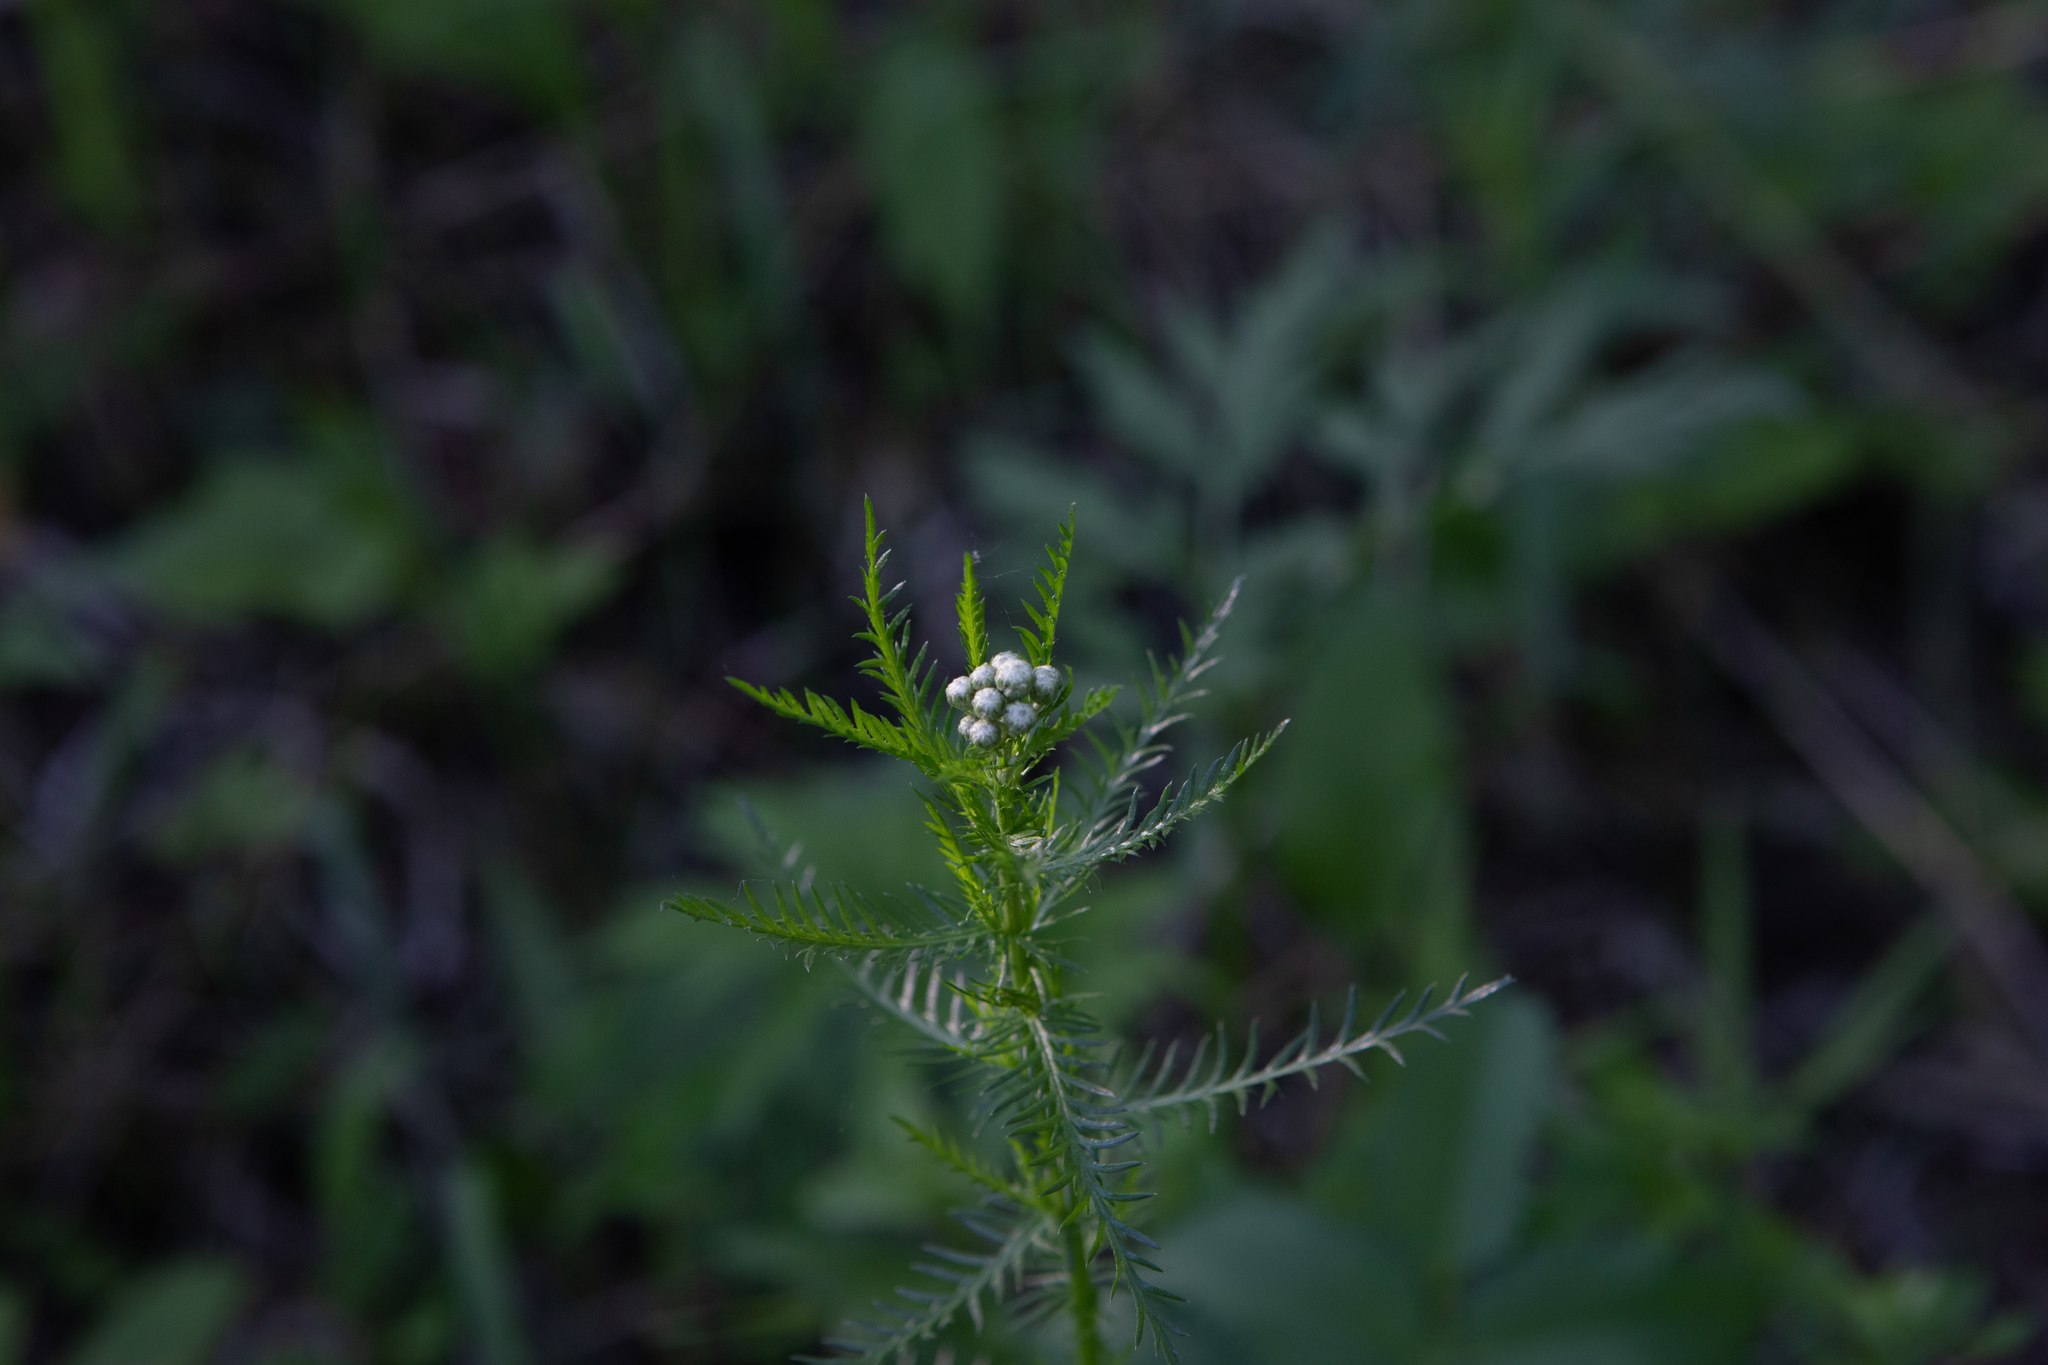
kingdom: Plantae
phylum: Tracheophyta
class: Magnoliopsida
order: Asterales
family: Asteraceae
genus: Achillea
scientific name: Achillea impatiens
